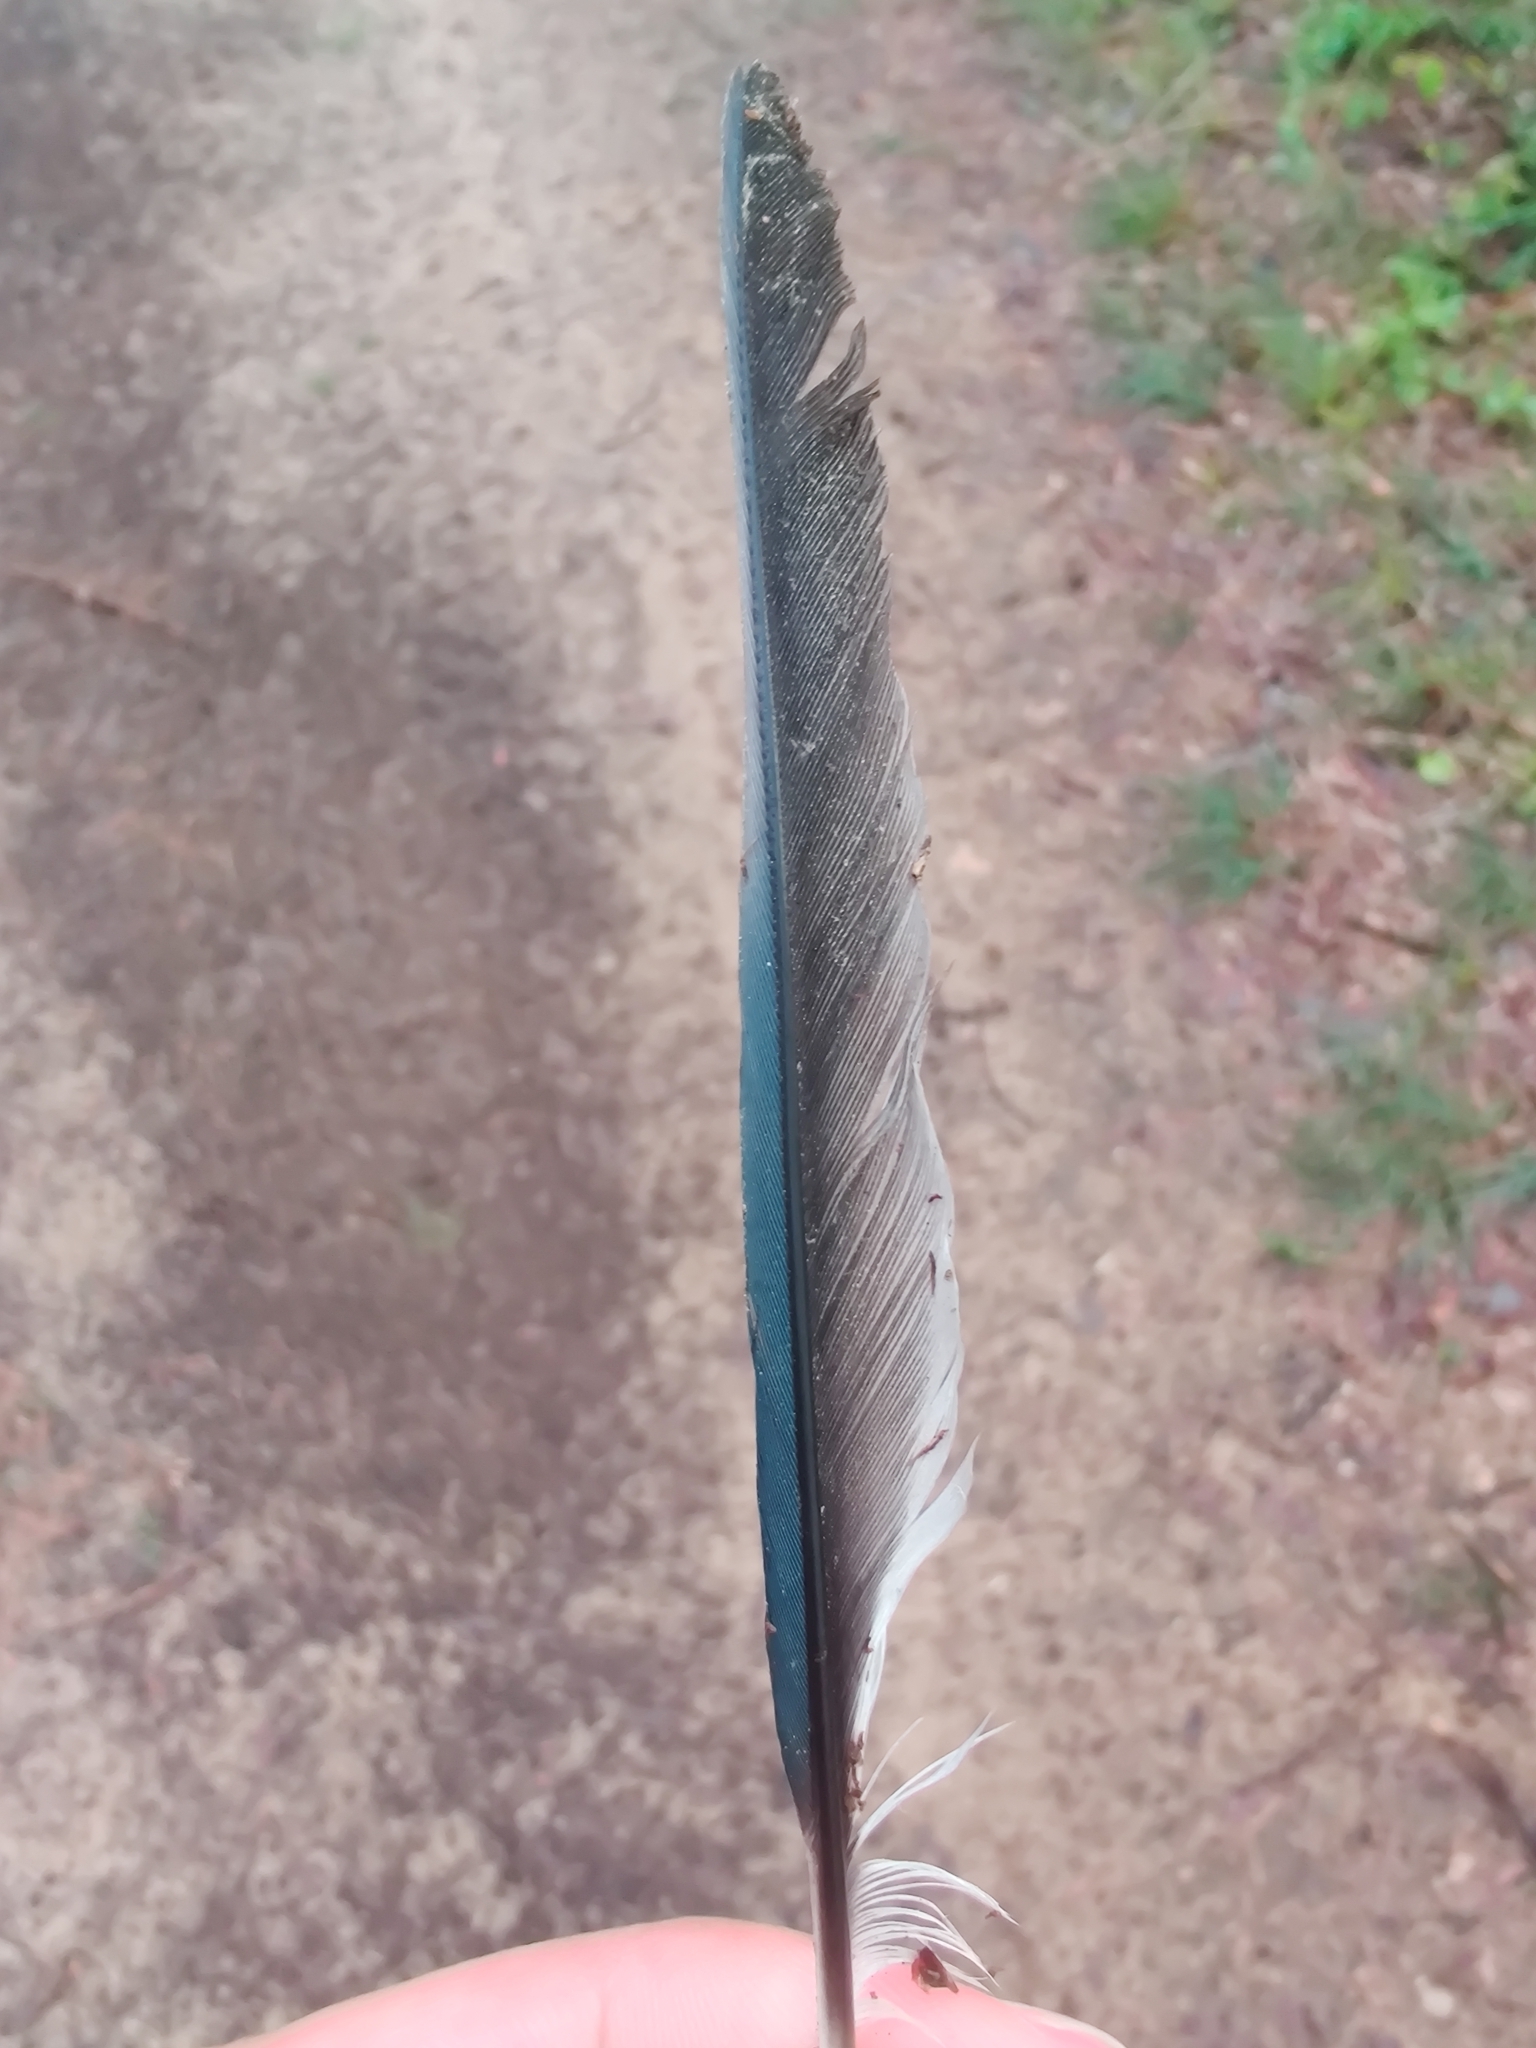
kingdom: Animalia
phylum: Chordata
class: Aves
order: Passeriformes
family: Corvidae
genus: Cyanocitta
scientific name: Cyanocitta cristata
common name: Blue jay
